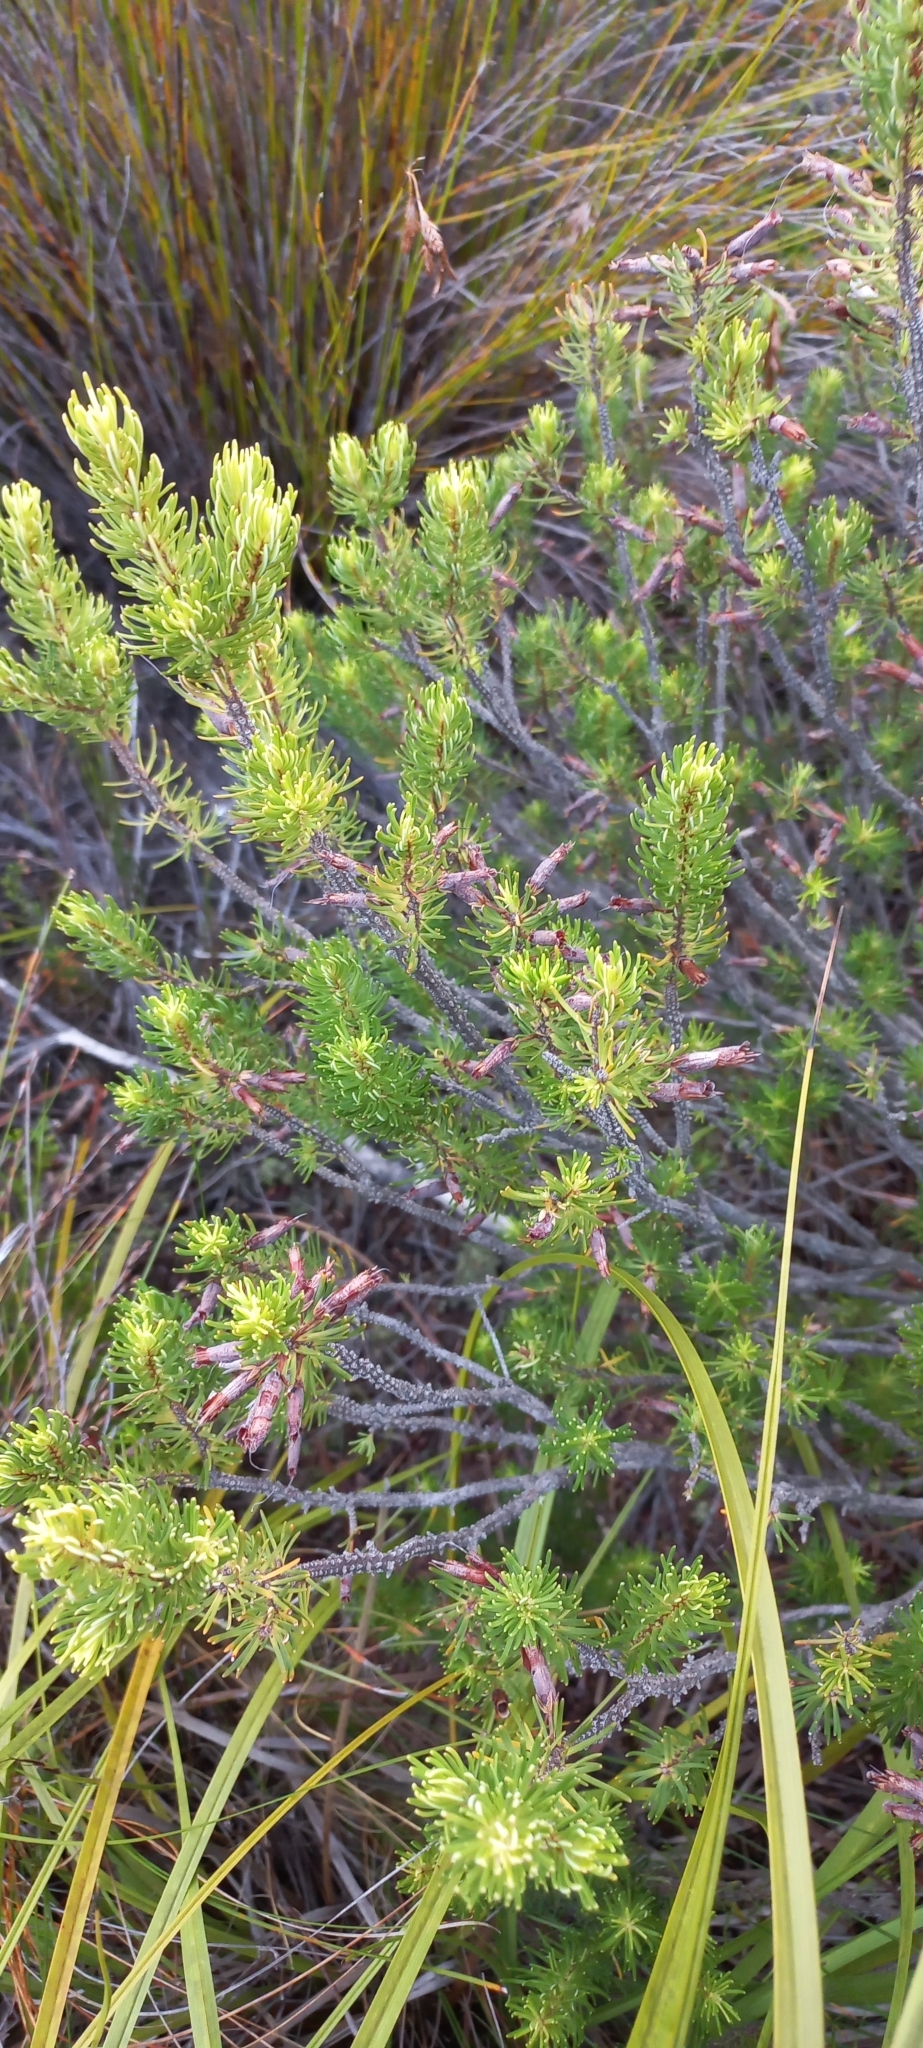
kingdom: Plantae
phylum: Tracheophyta
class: Magnoliopsida
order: Ericales
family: Ericaceae
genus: Erica
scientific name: Erica plukenetii
